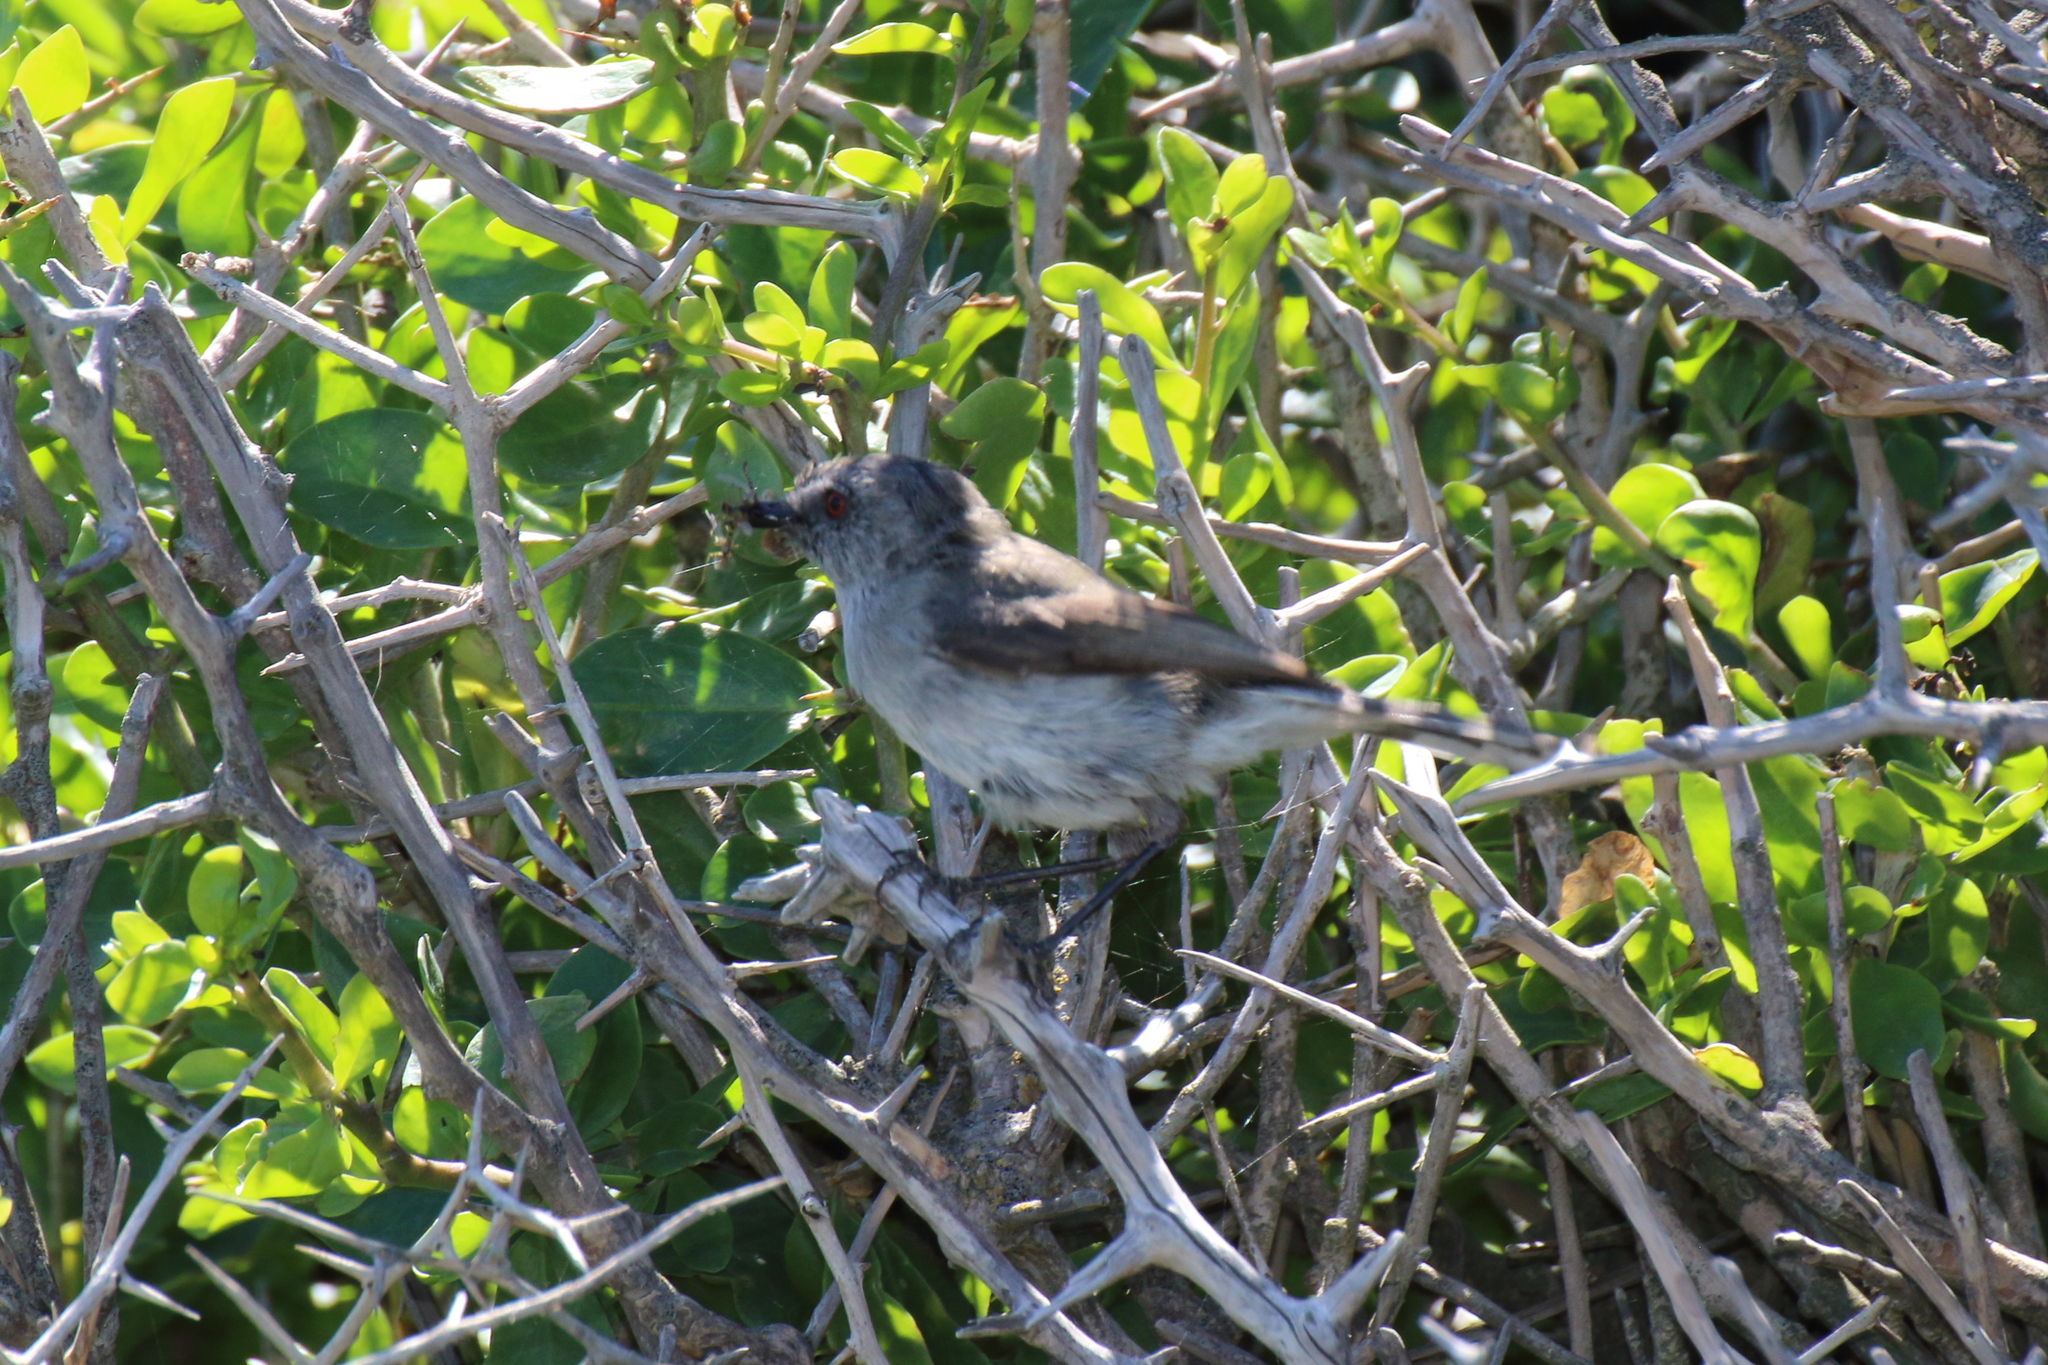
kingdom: Animalia
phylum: Chordata
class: Aves
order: Passeriformes
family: Acanthizidae
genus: Gerygone
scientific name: Gerygone igata
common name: Grey gerygone
